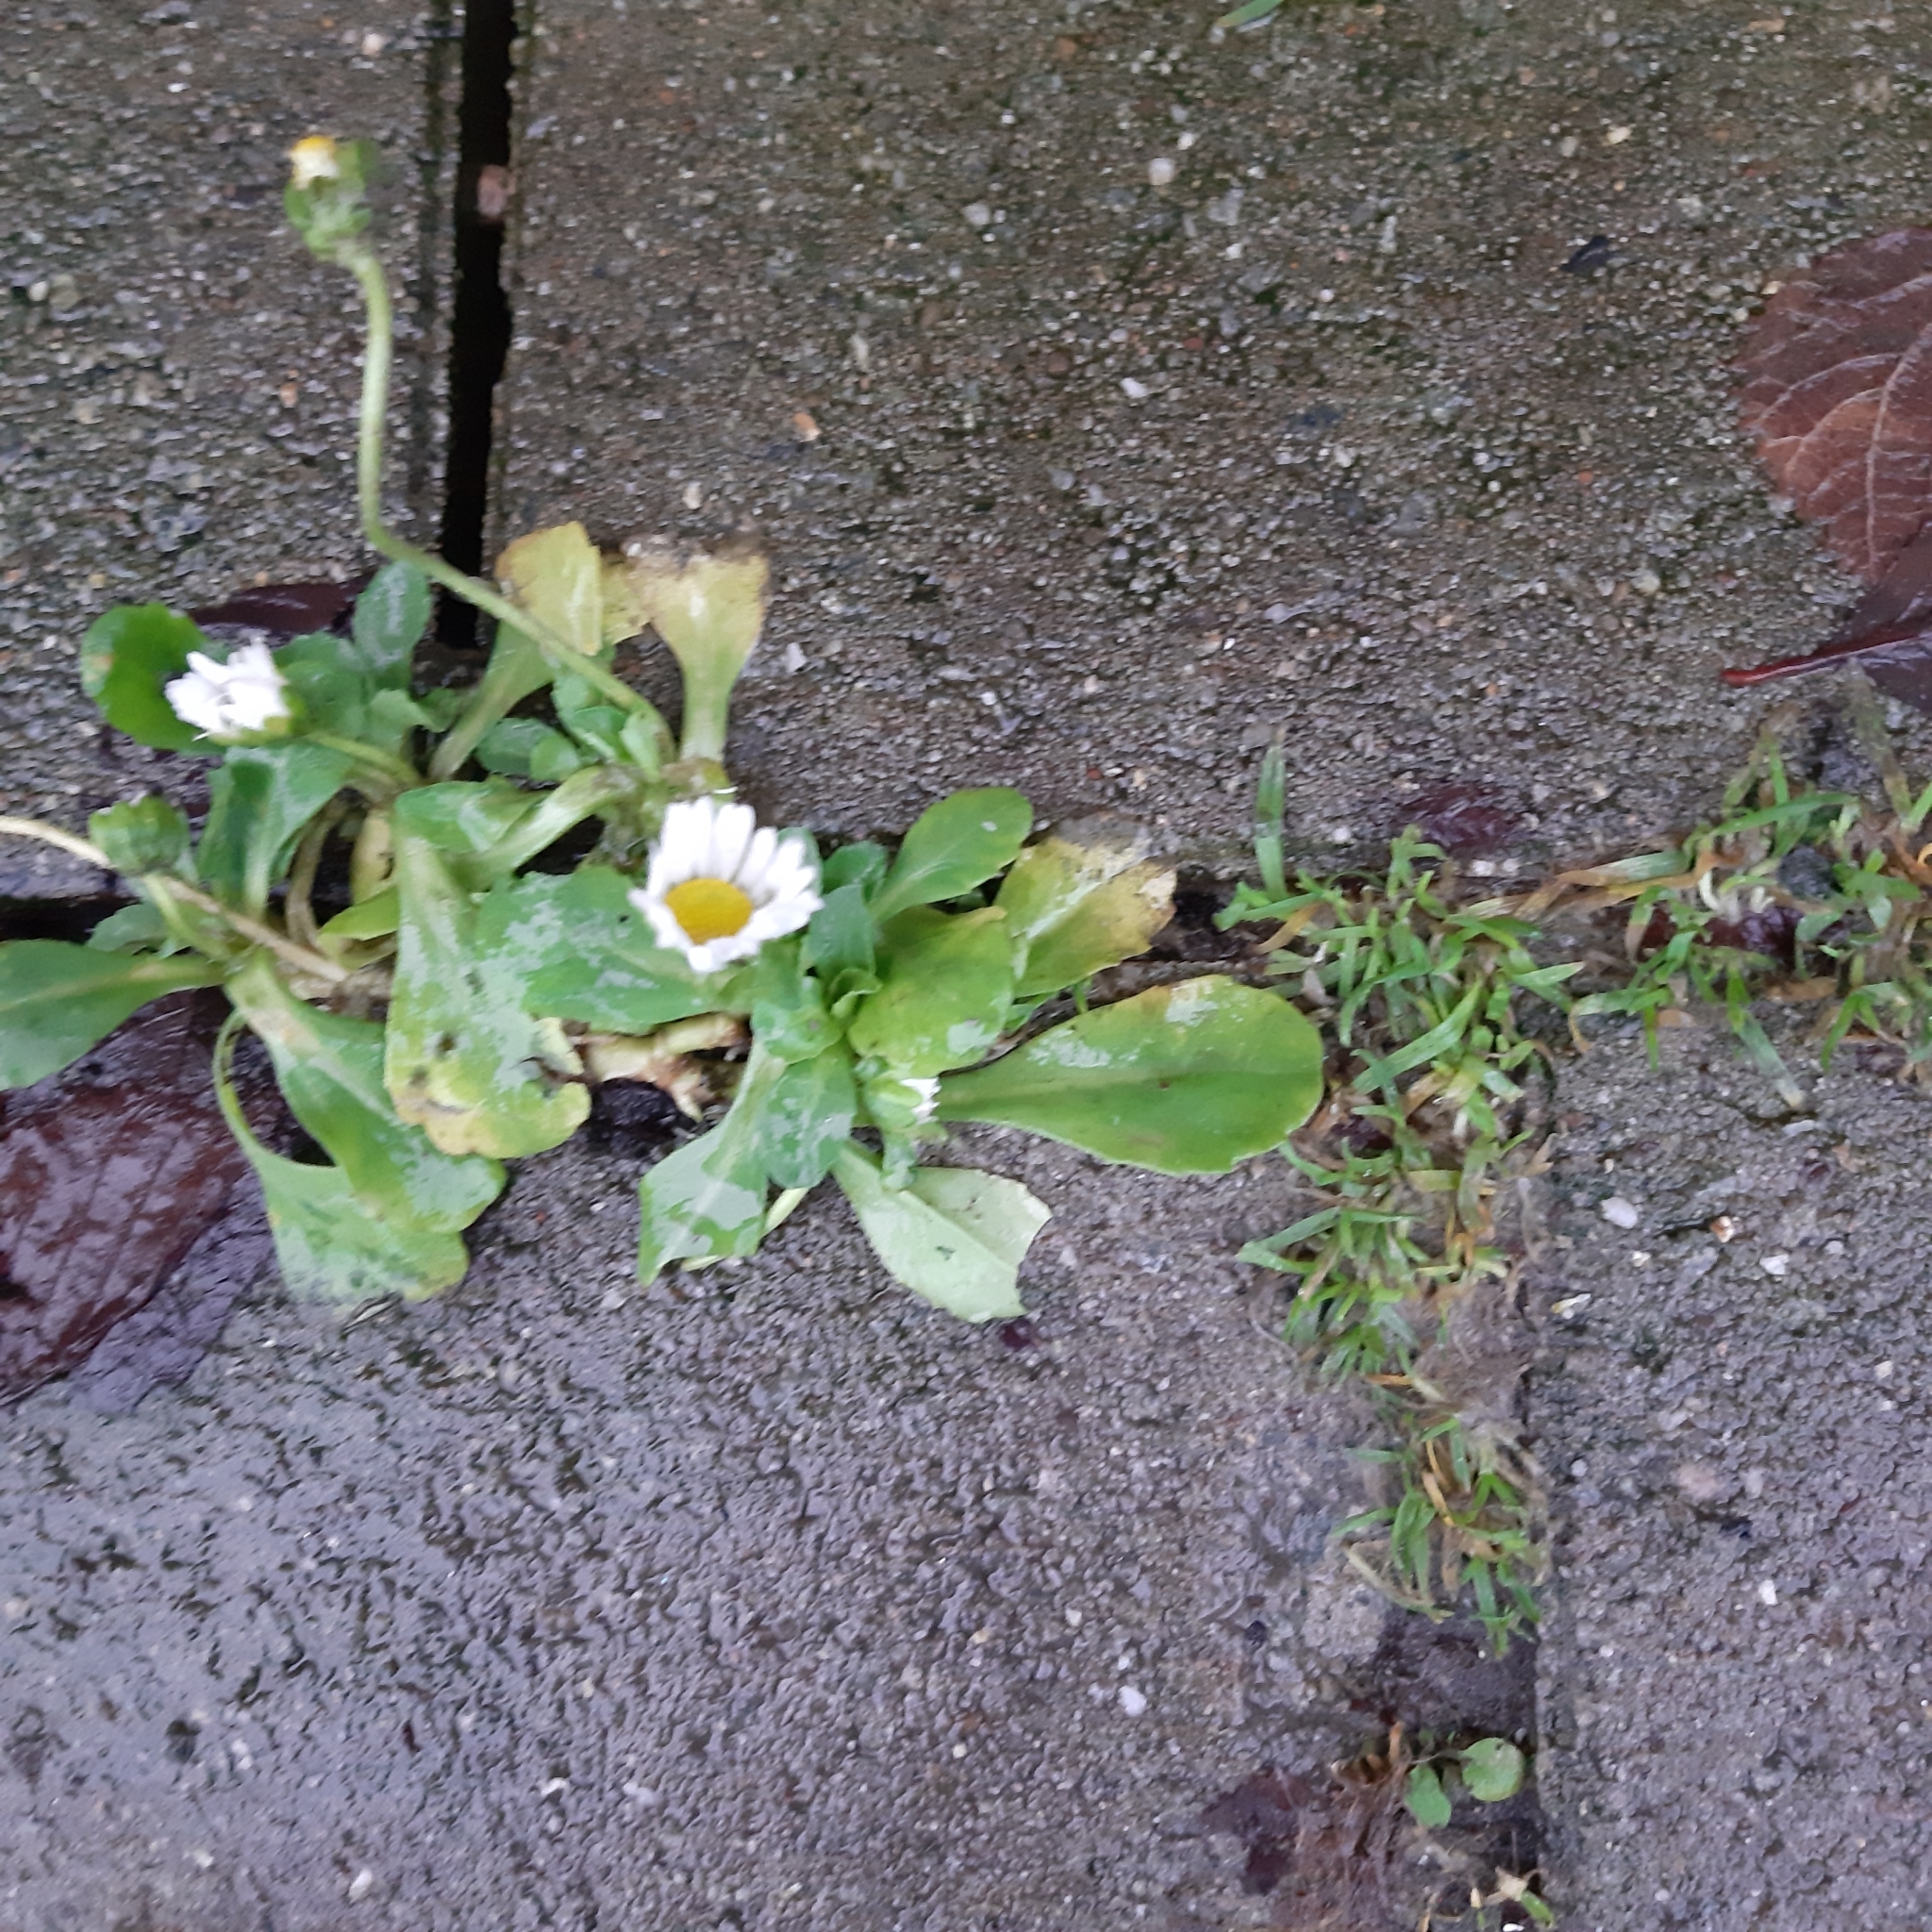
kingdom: Plantae
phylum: Tracheophyta
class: Magnoliopsida
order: Asterales
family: Asteraceae
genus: Bellis
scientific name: Bellis perennis
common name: Lawndaisy
